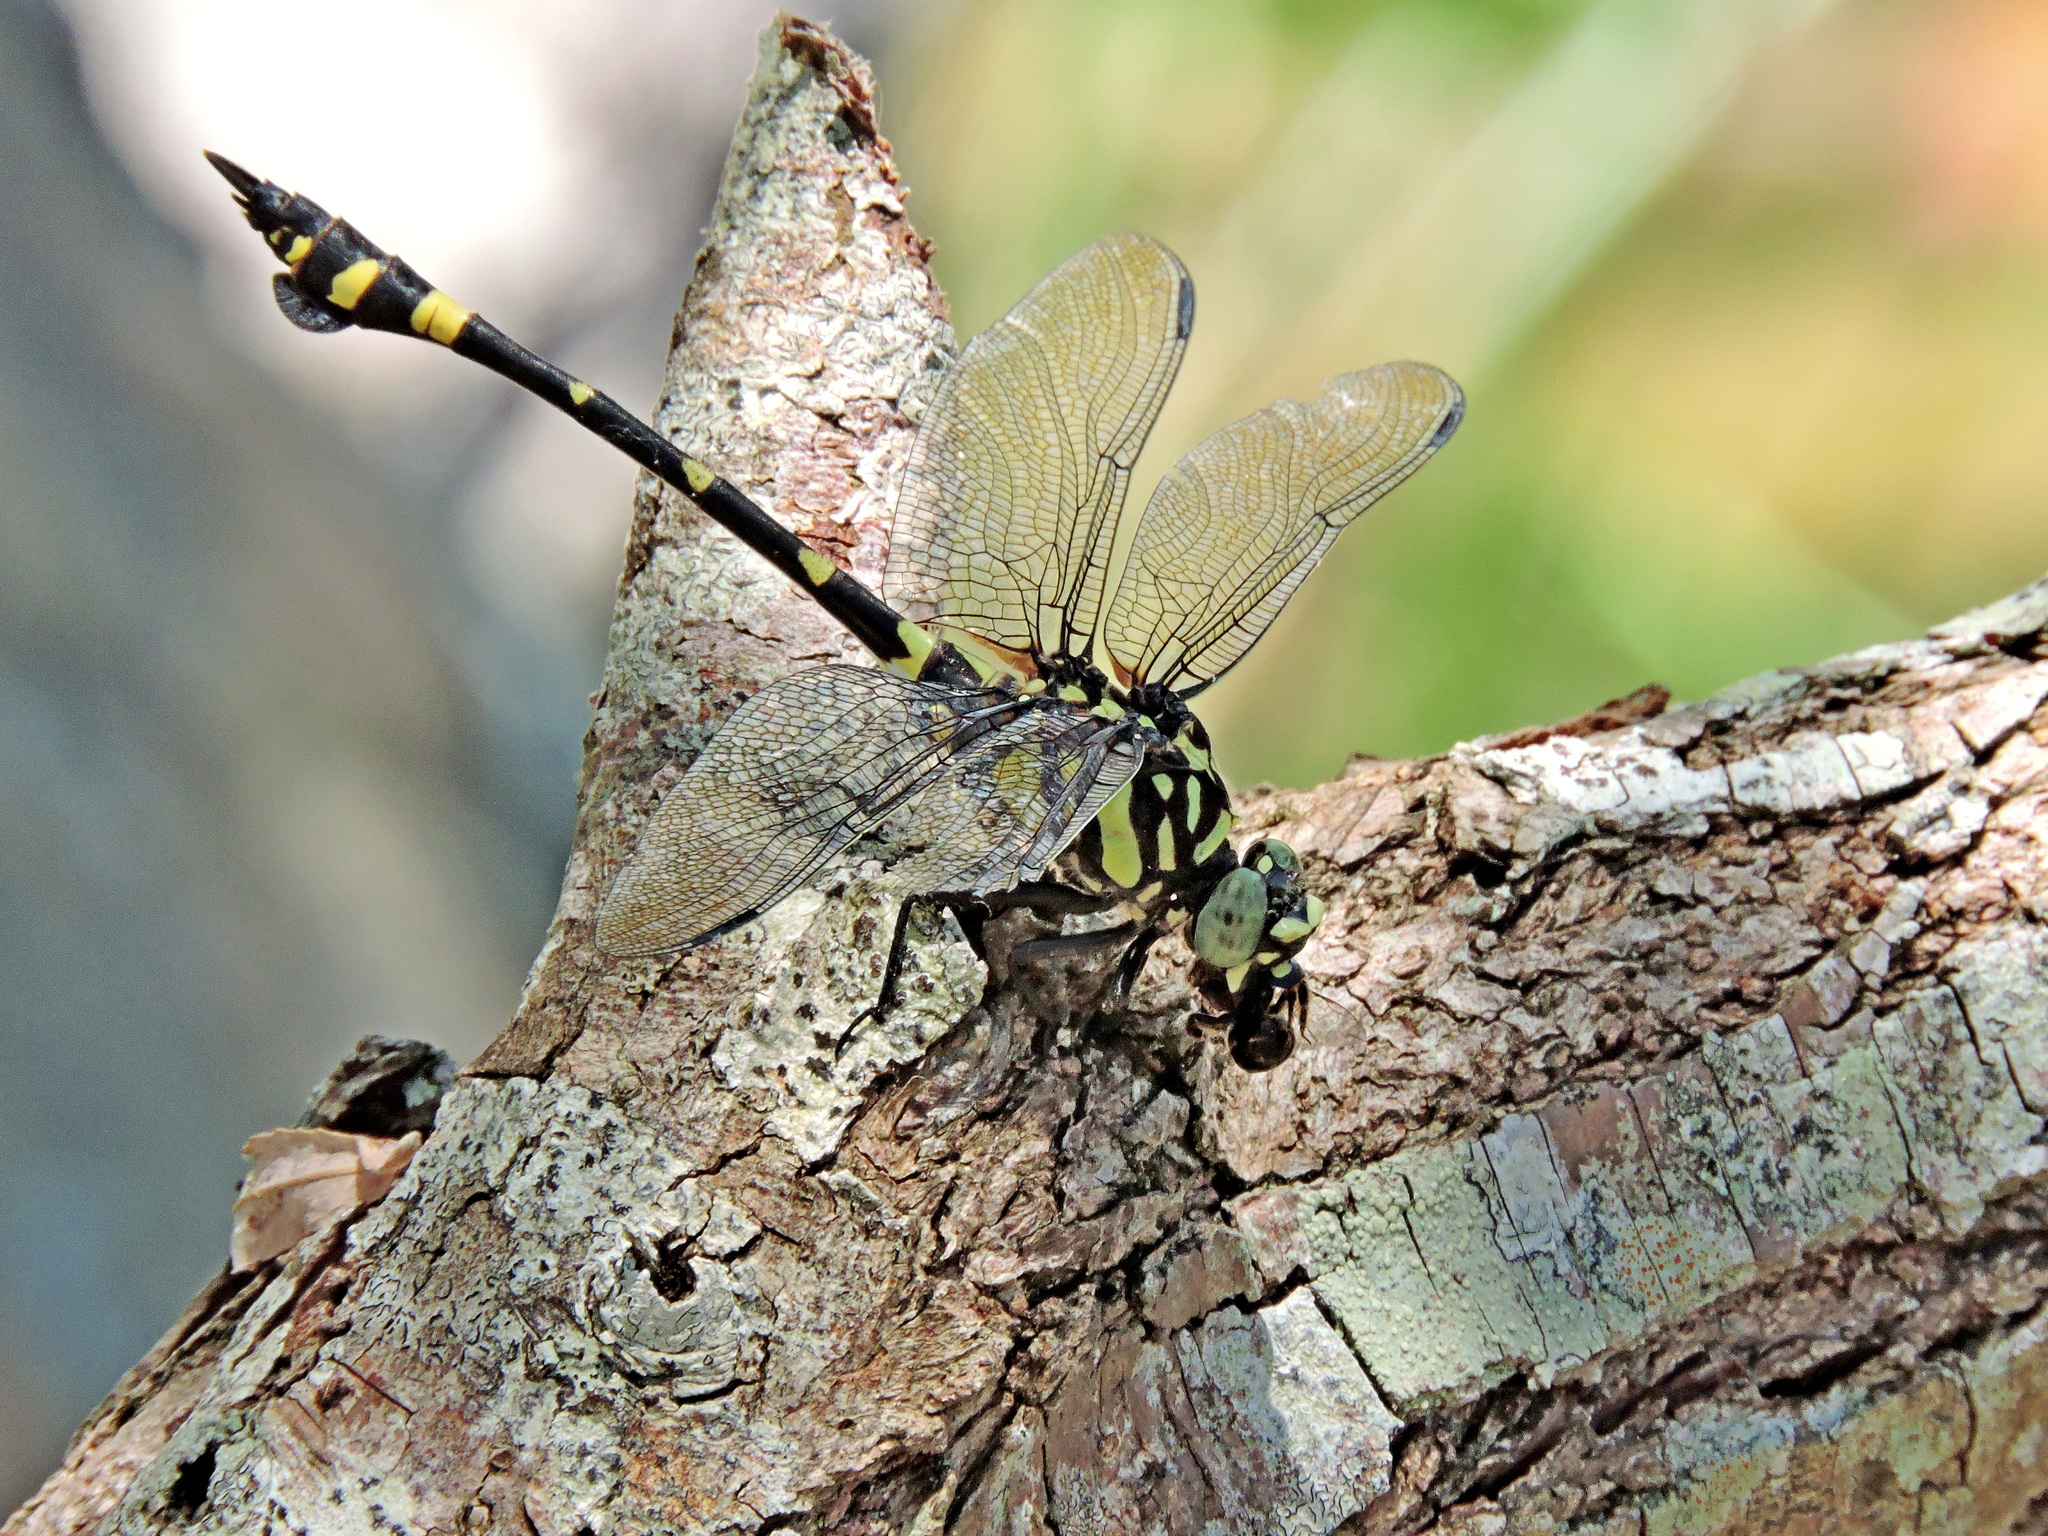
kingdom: Animalia
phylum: Arthropoda
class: Insecta
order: Odonata
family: Gomphidae
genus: Ictinogomphus
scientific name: Ictinogomphus rapax
